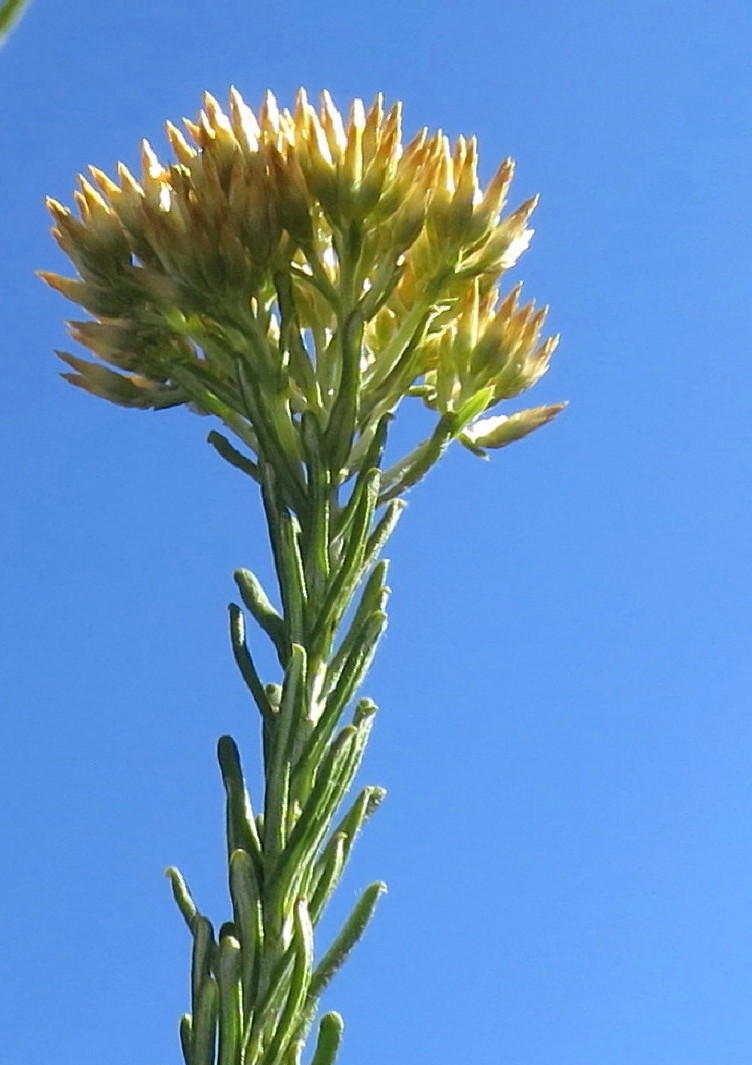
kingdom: Plantae
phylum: Tracheophyta
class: Magnoliopsida
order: Asterales
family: Asteraceae
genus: Helichrysum
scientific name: Helichrysum hamulosum
